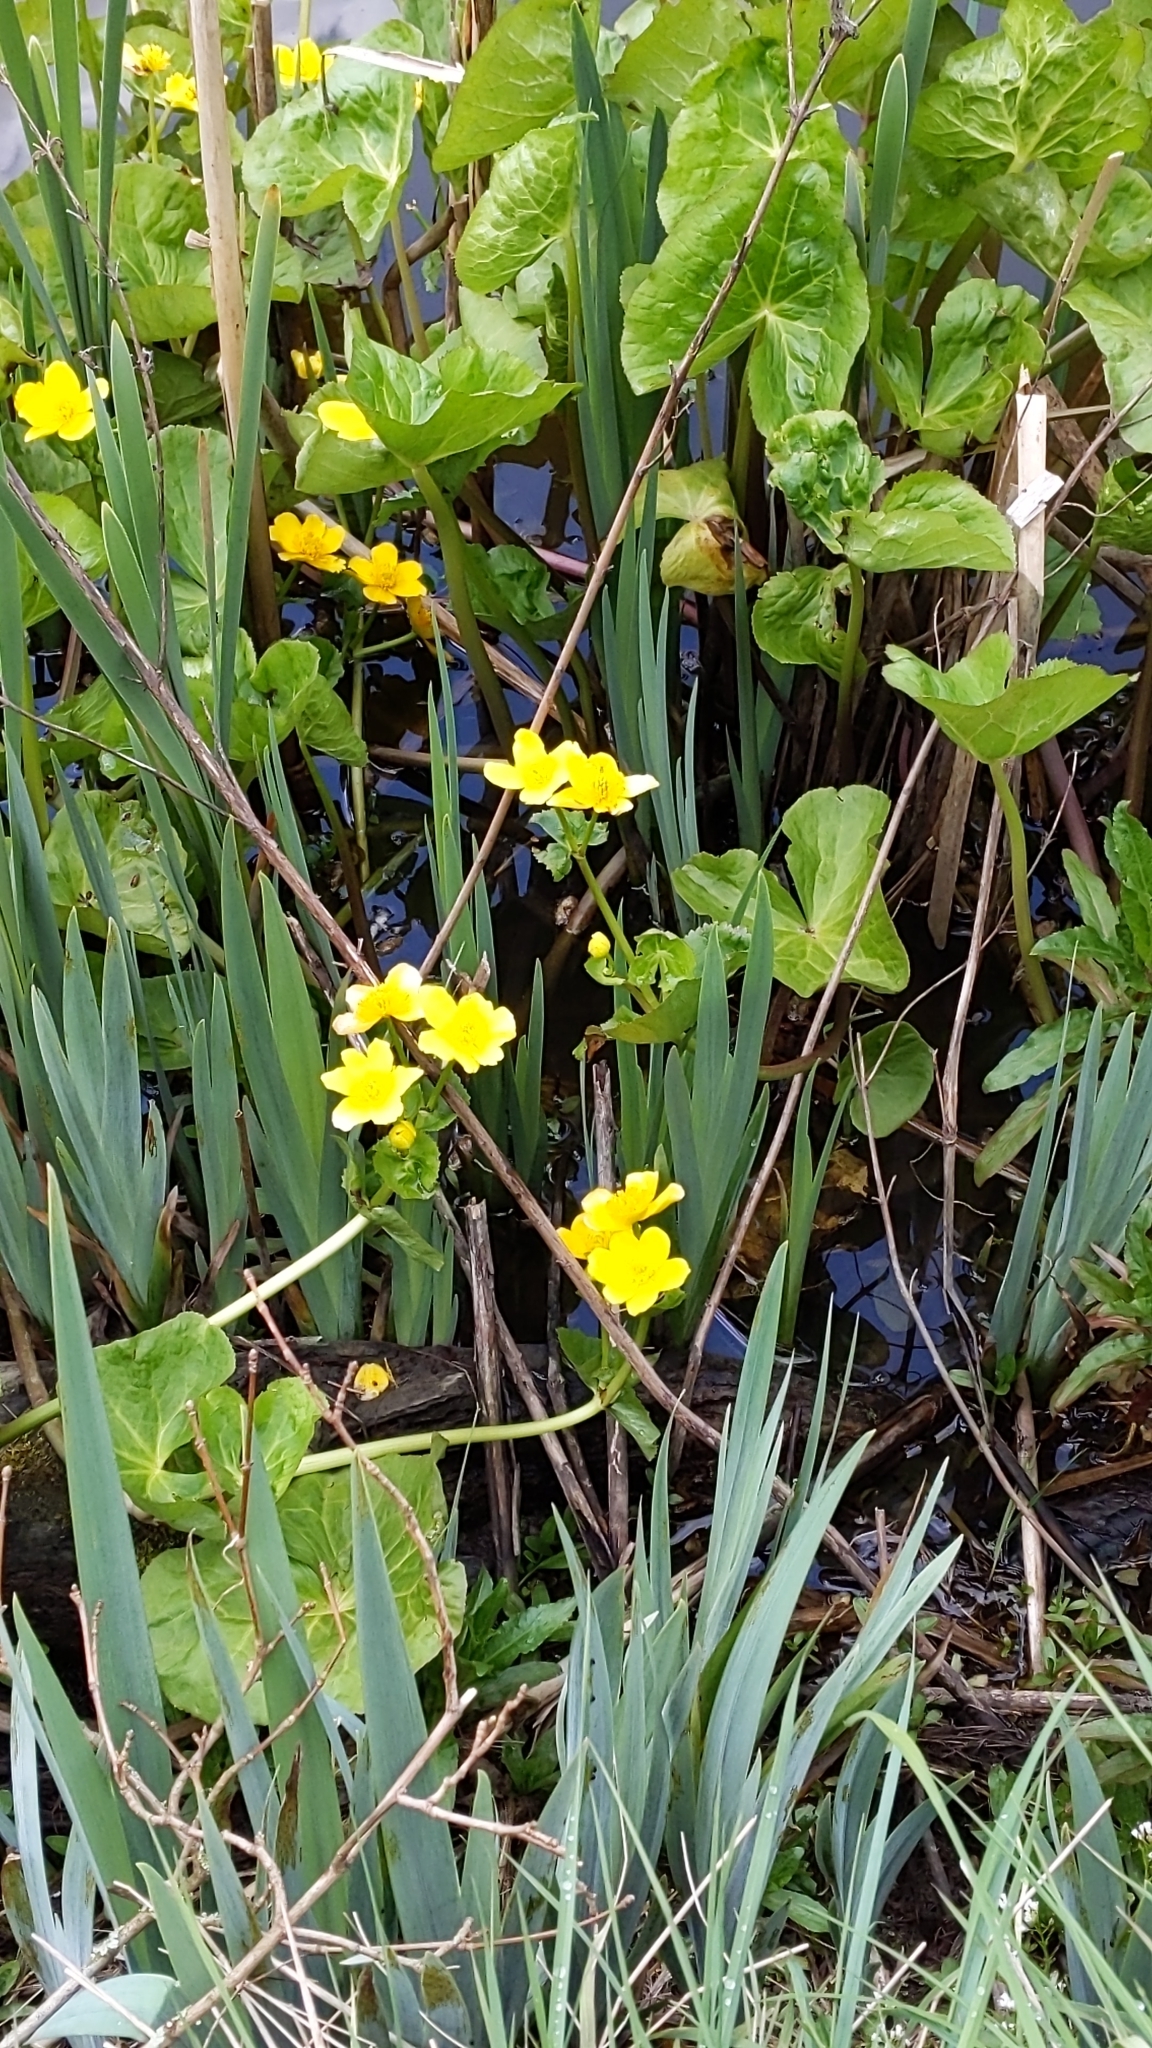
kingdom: Plantae
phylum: Tracheophyta
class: Magnoliopsida
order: Ranunculales
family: Ranunculaceae
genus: Caltha
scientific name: Caltha palustris
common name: Marsh marigold
